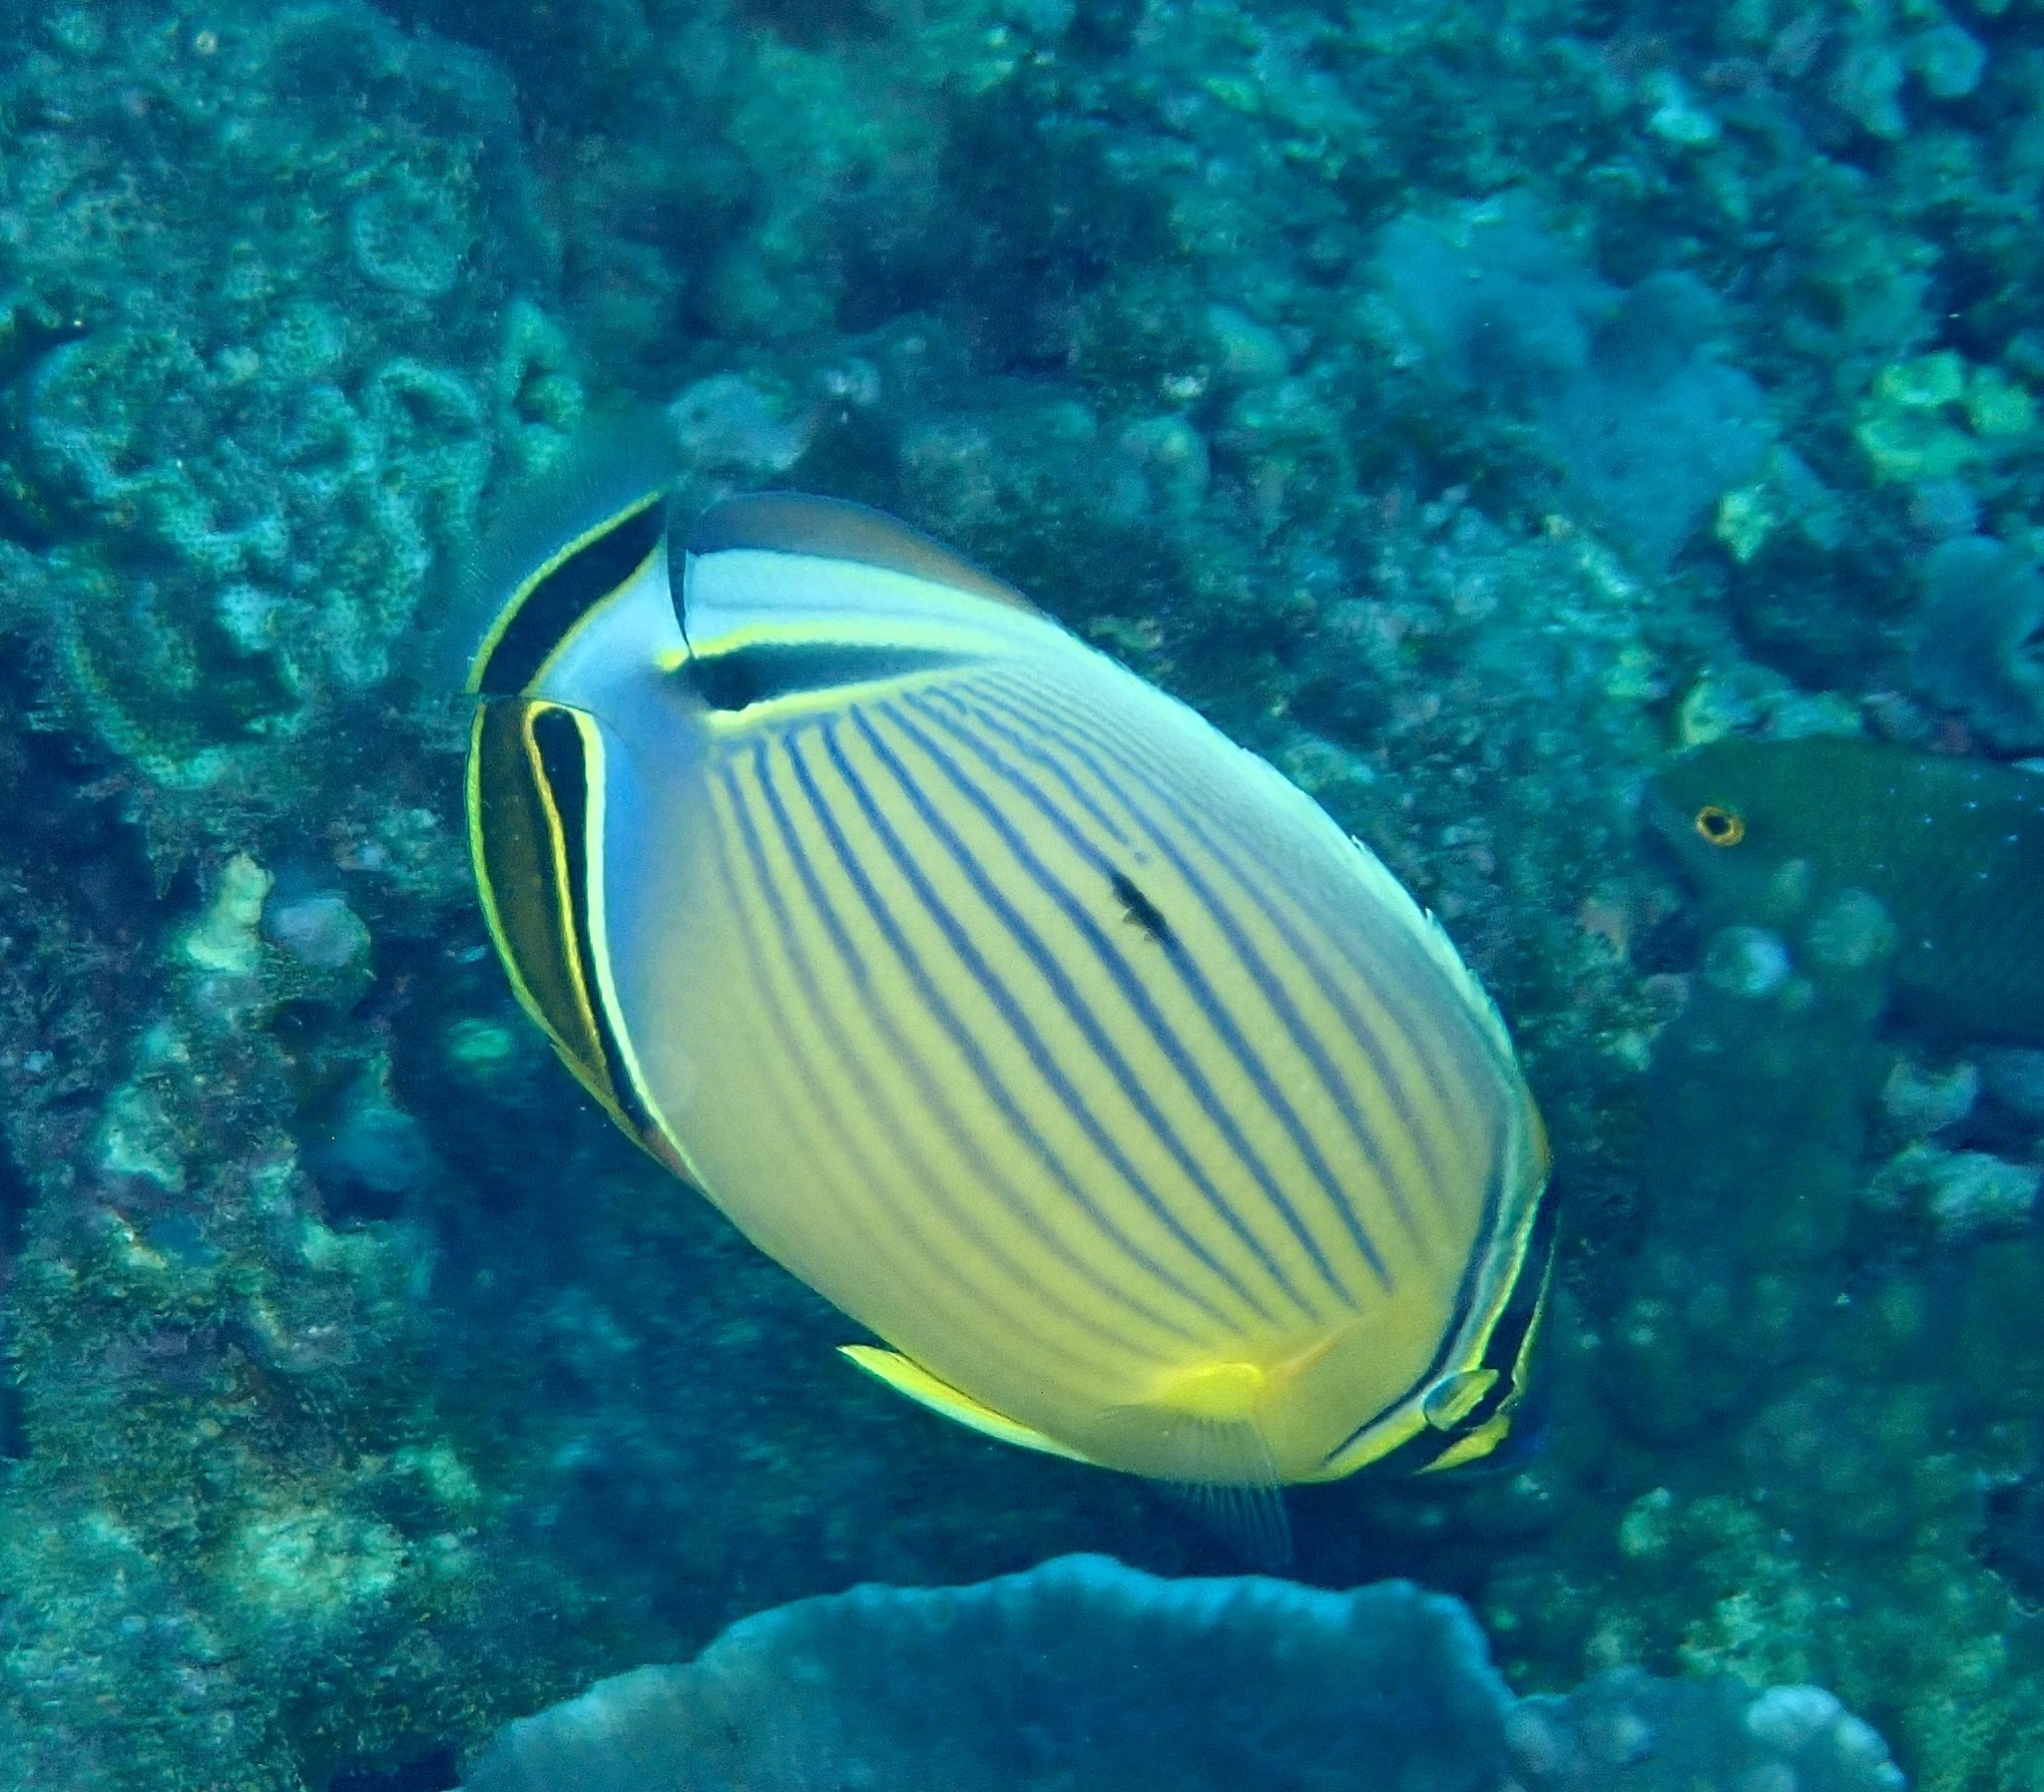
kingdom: Animalia
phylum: Chordata
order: Perciformes
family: Chaetodontidae
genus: Chaetodon
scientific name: Chaetodon lunulatus
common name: Redfin butterflyfish
